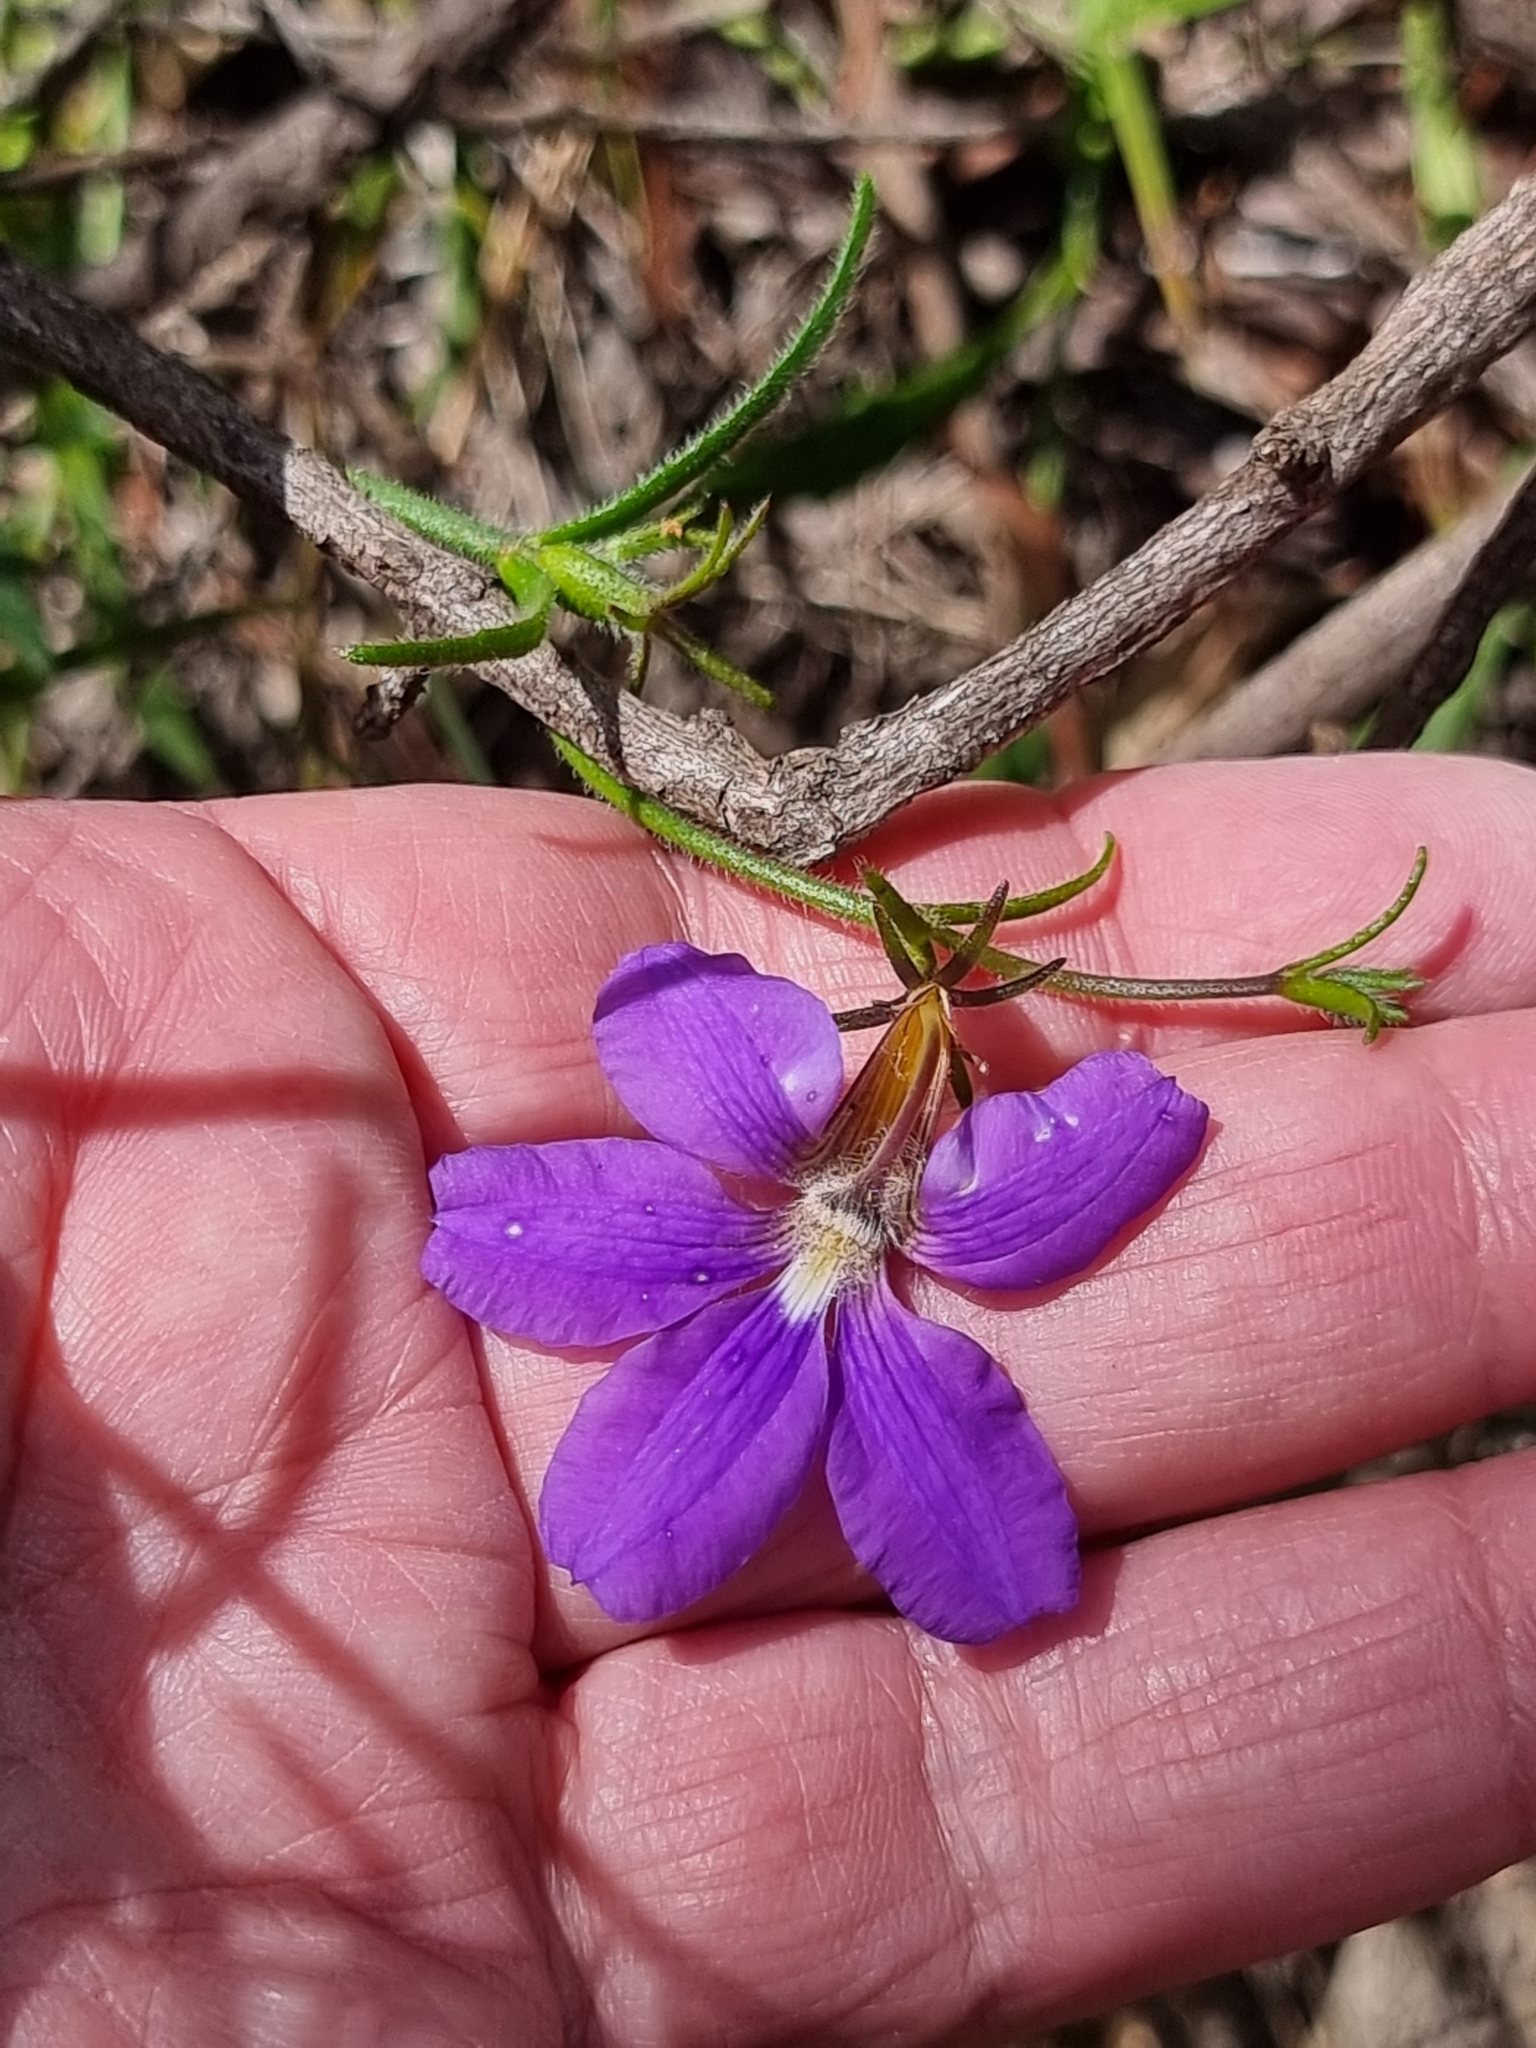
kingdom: Plantae
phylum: Tracheophyta
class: Magnoliopsida
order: Asterales
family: Goodeniaceae
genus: Scaevola
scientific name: Scaevola ramosissima
